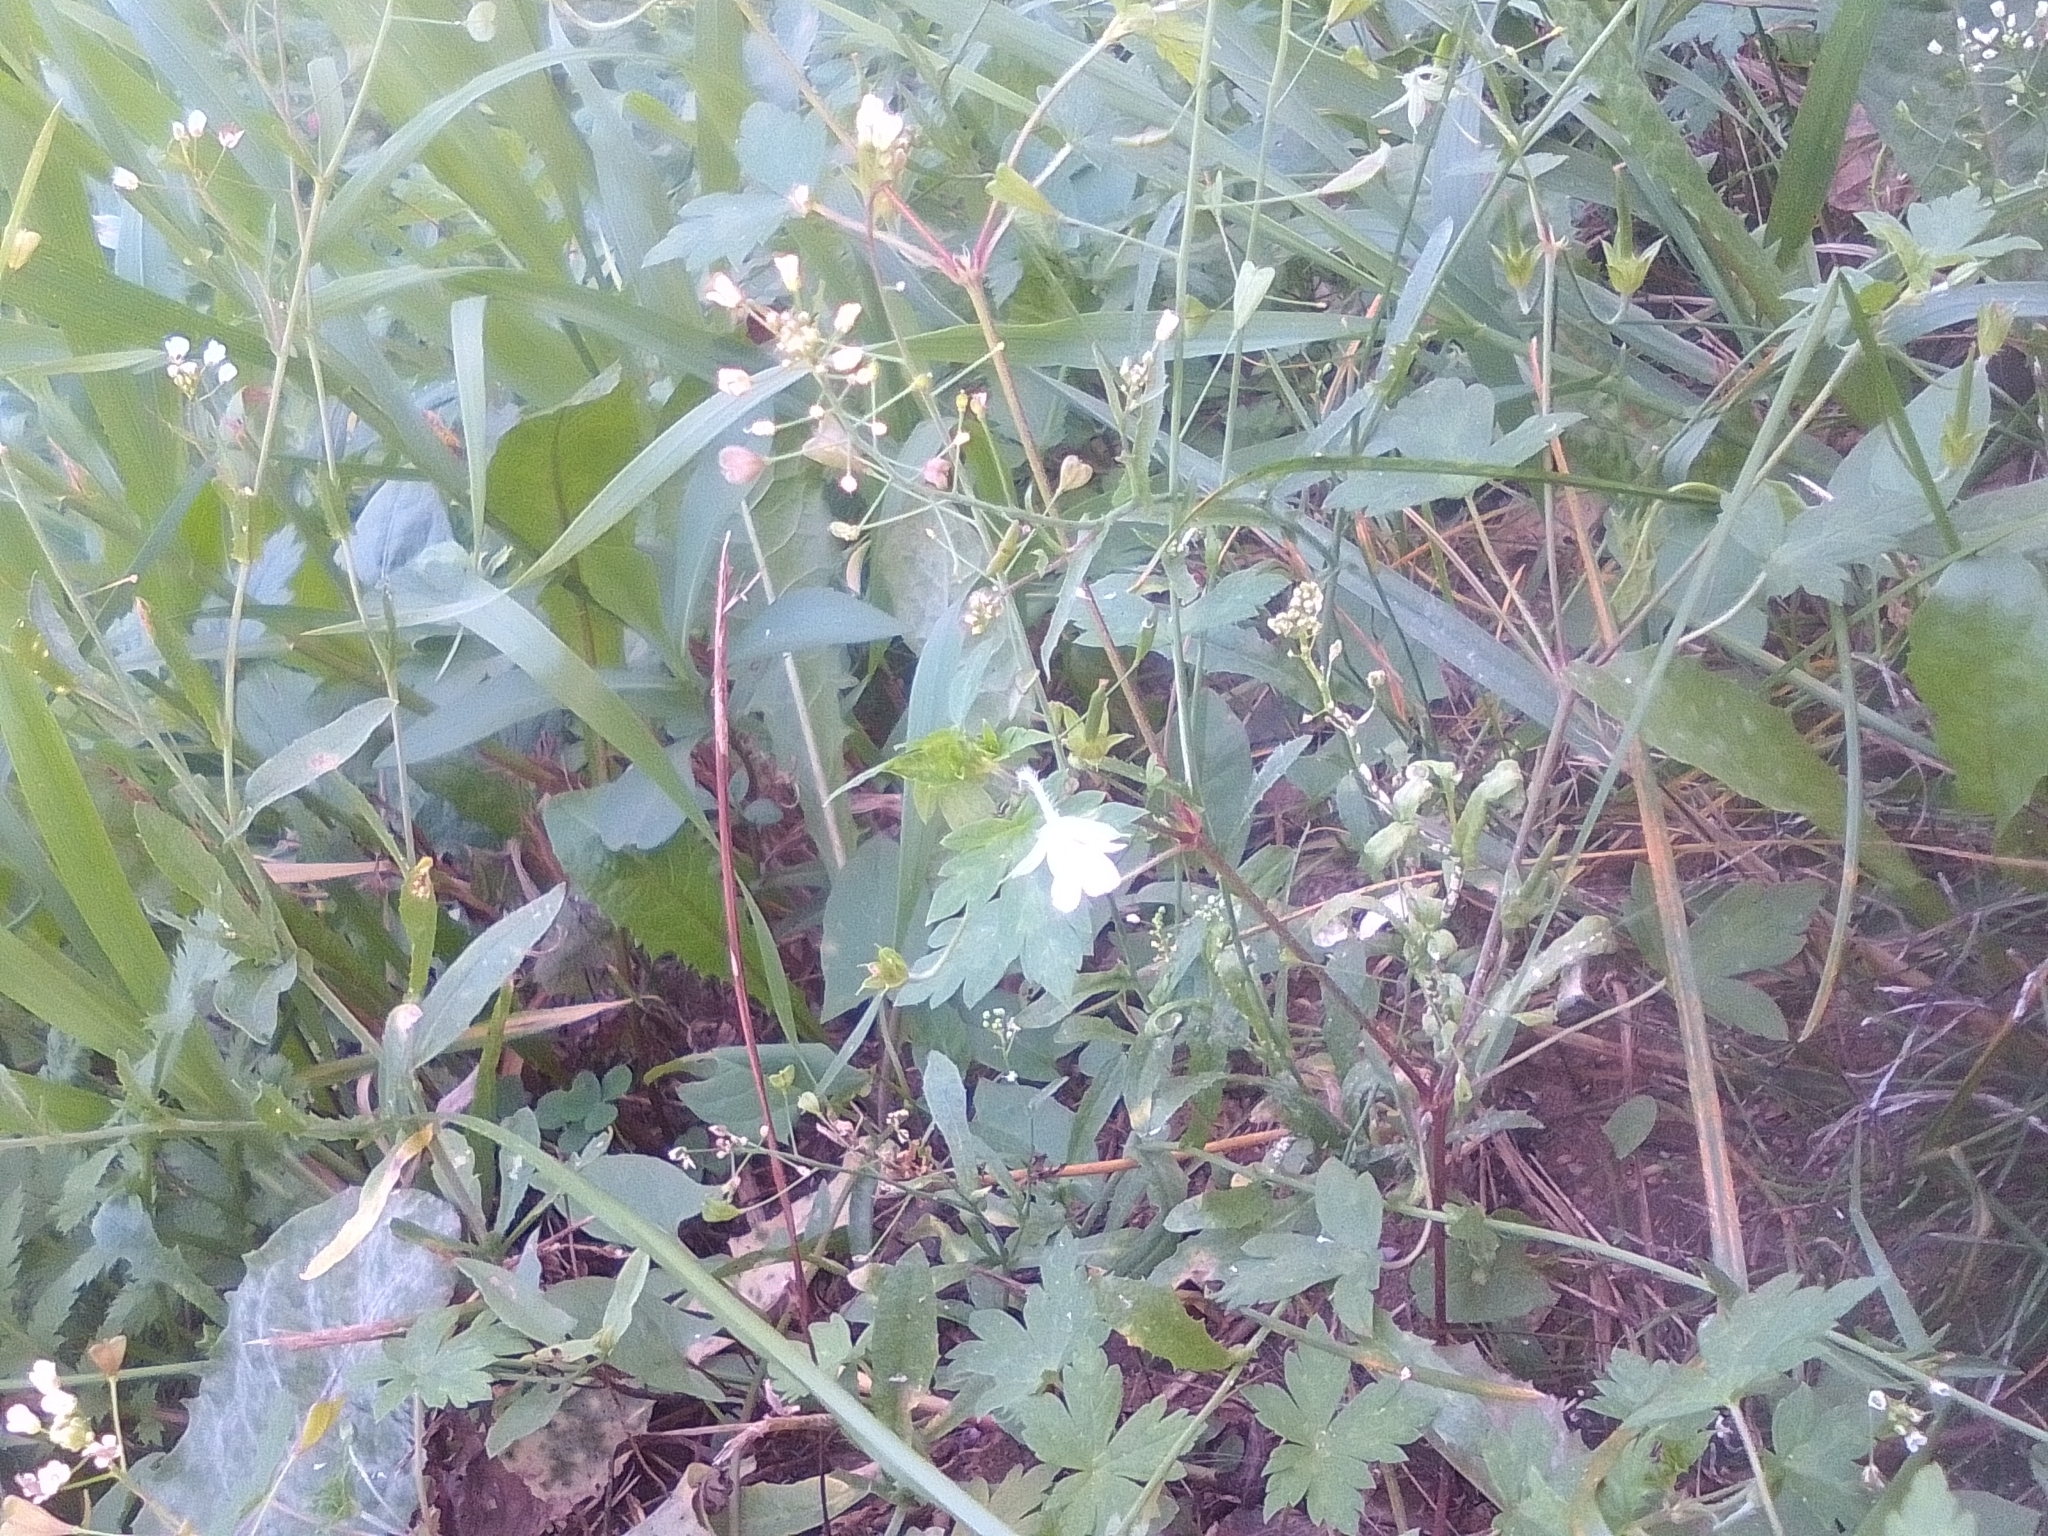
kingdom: Plantae
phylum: Tracheophyta
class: Magnoliopsida
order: Geraniales
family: Geraniaceae
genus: Geranium
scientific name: Geranium sibiricum
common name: Siberian crane's-bill
